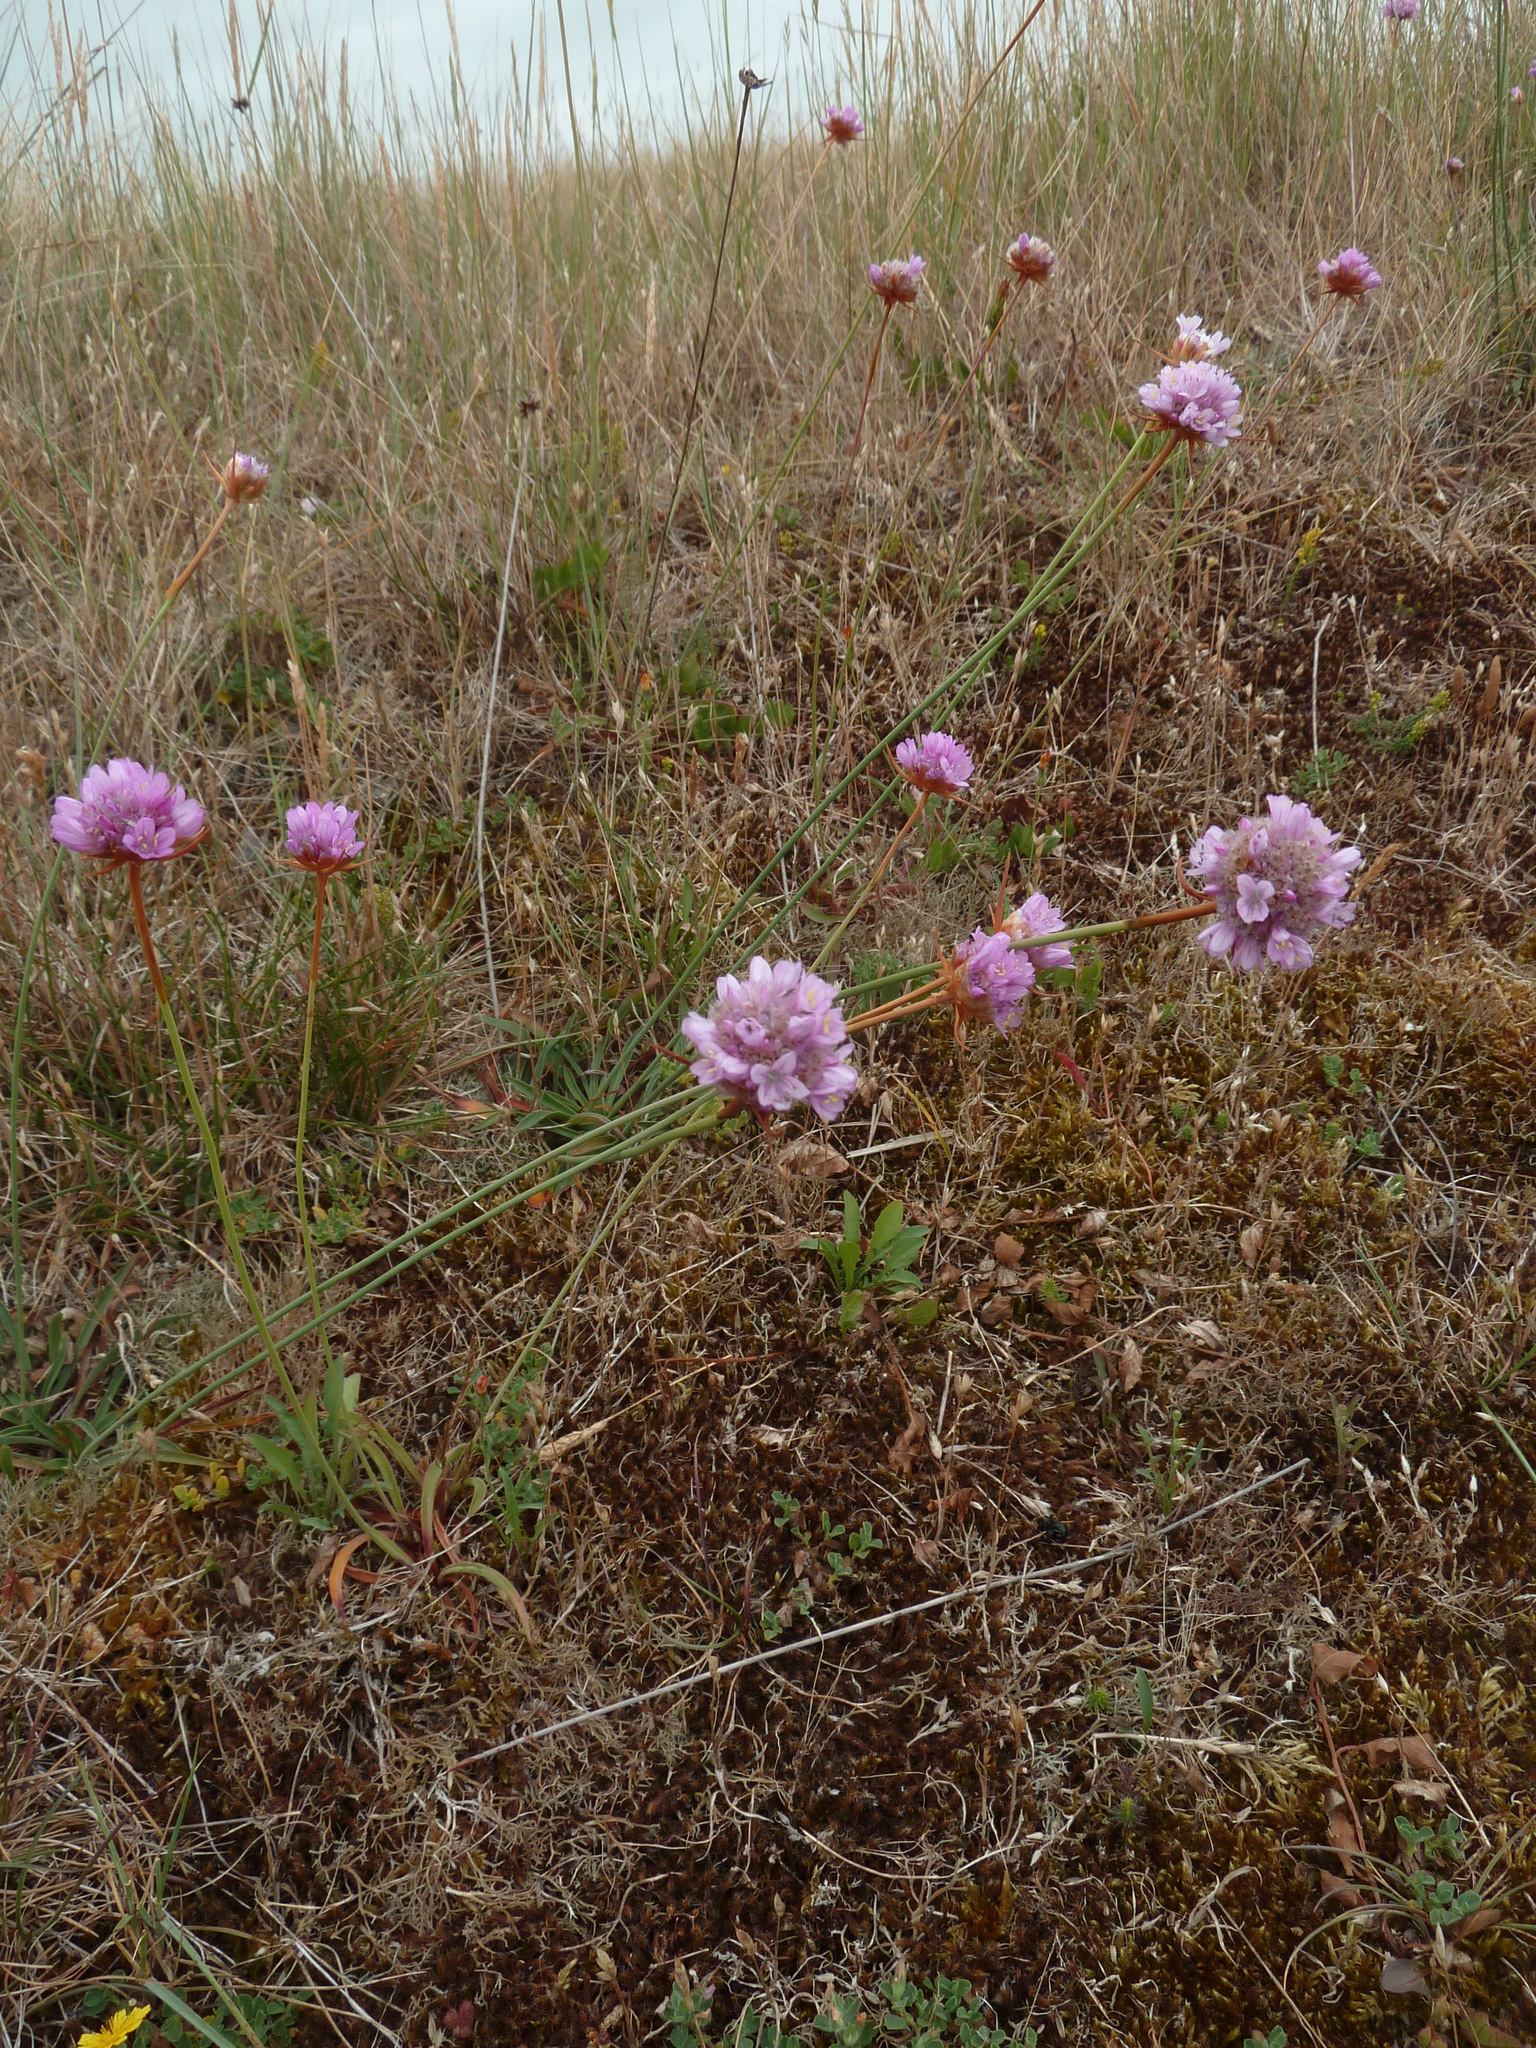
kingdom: Plantae
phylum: Tracheophyta
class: Magnoliopsida
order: Caryophyllales
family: Plumbaginaceae
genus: Armeria
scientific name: Armeria maritima
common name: Thrift
